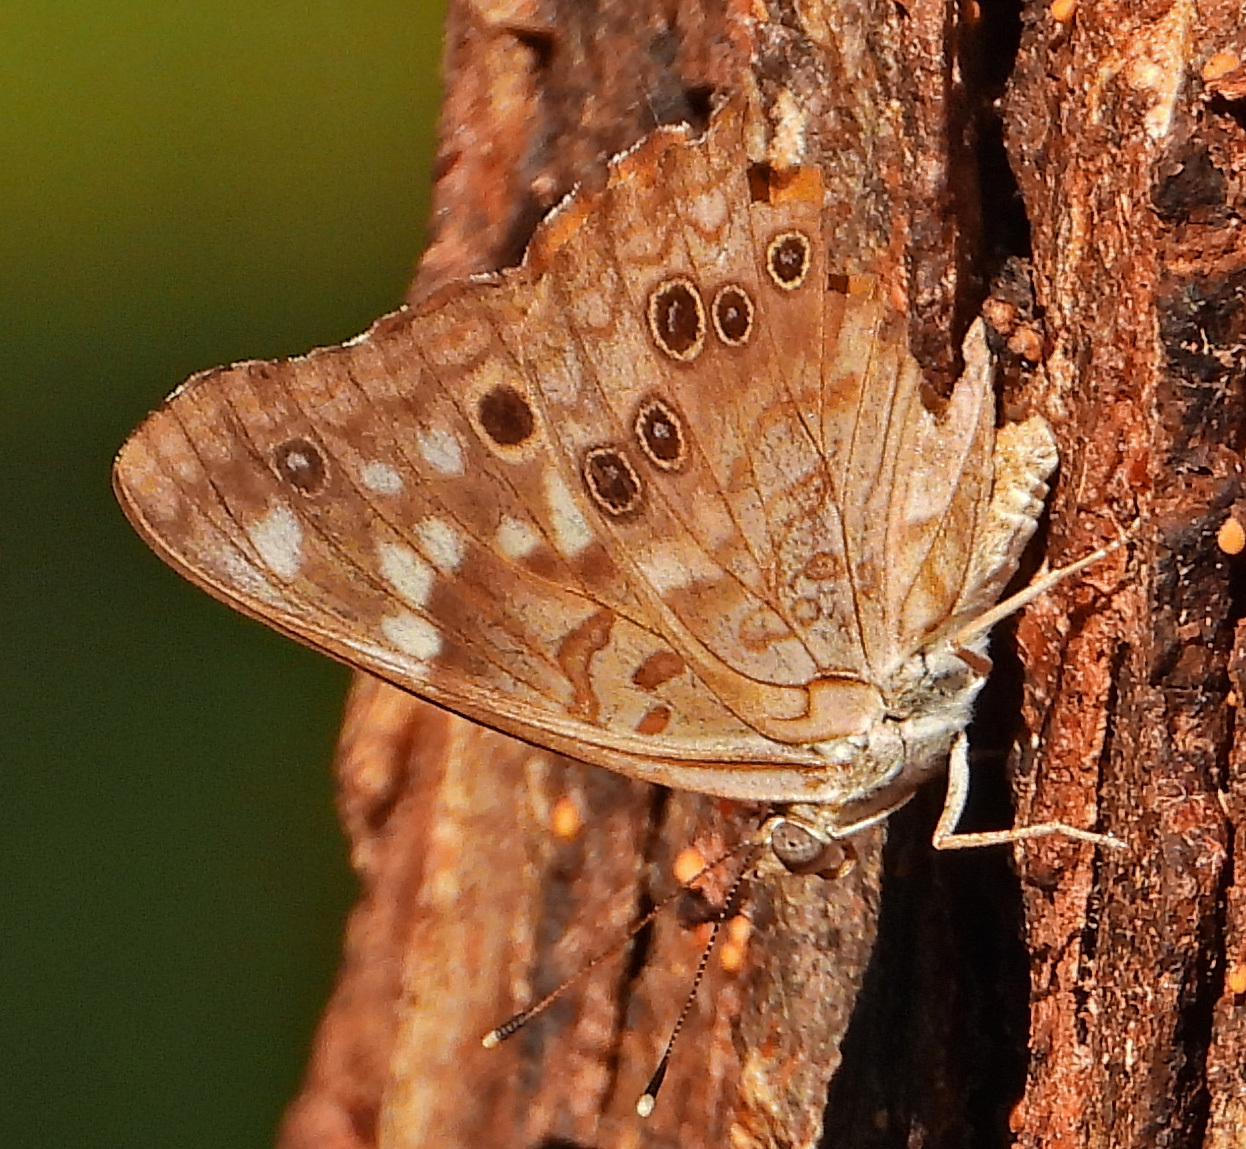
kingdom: Animalia
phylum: Arthropoda
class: Insecta
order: Lepidoptera
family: Nymphalidae
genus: Asterocampa
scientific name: Asterocampa celtis
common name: Hackberry emperor
